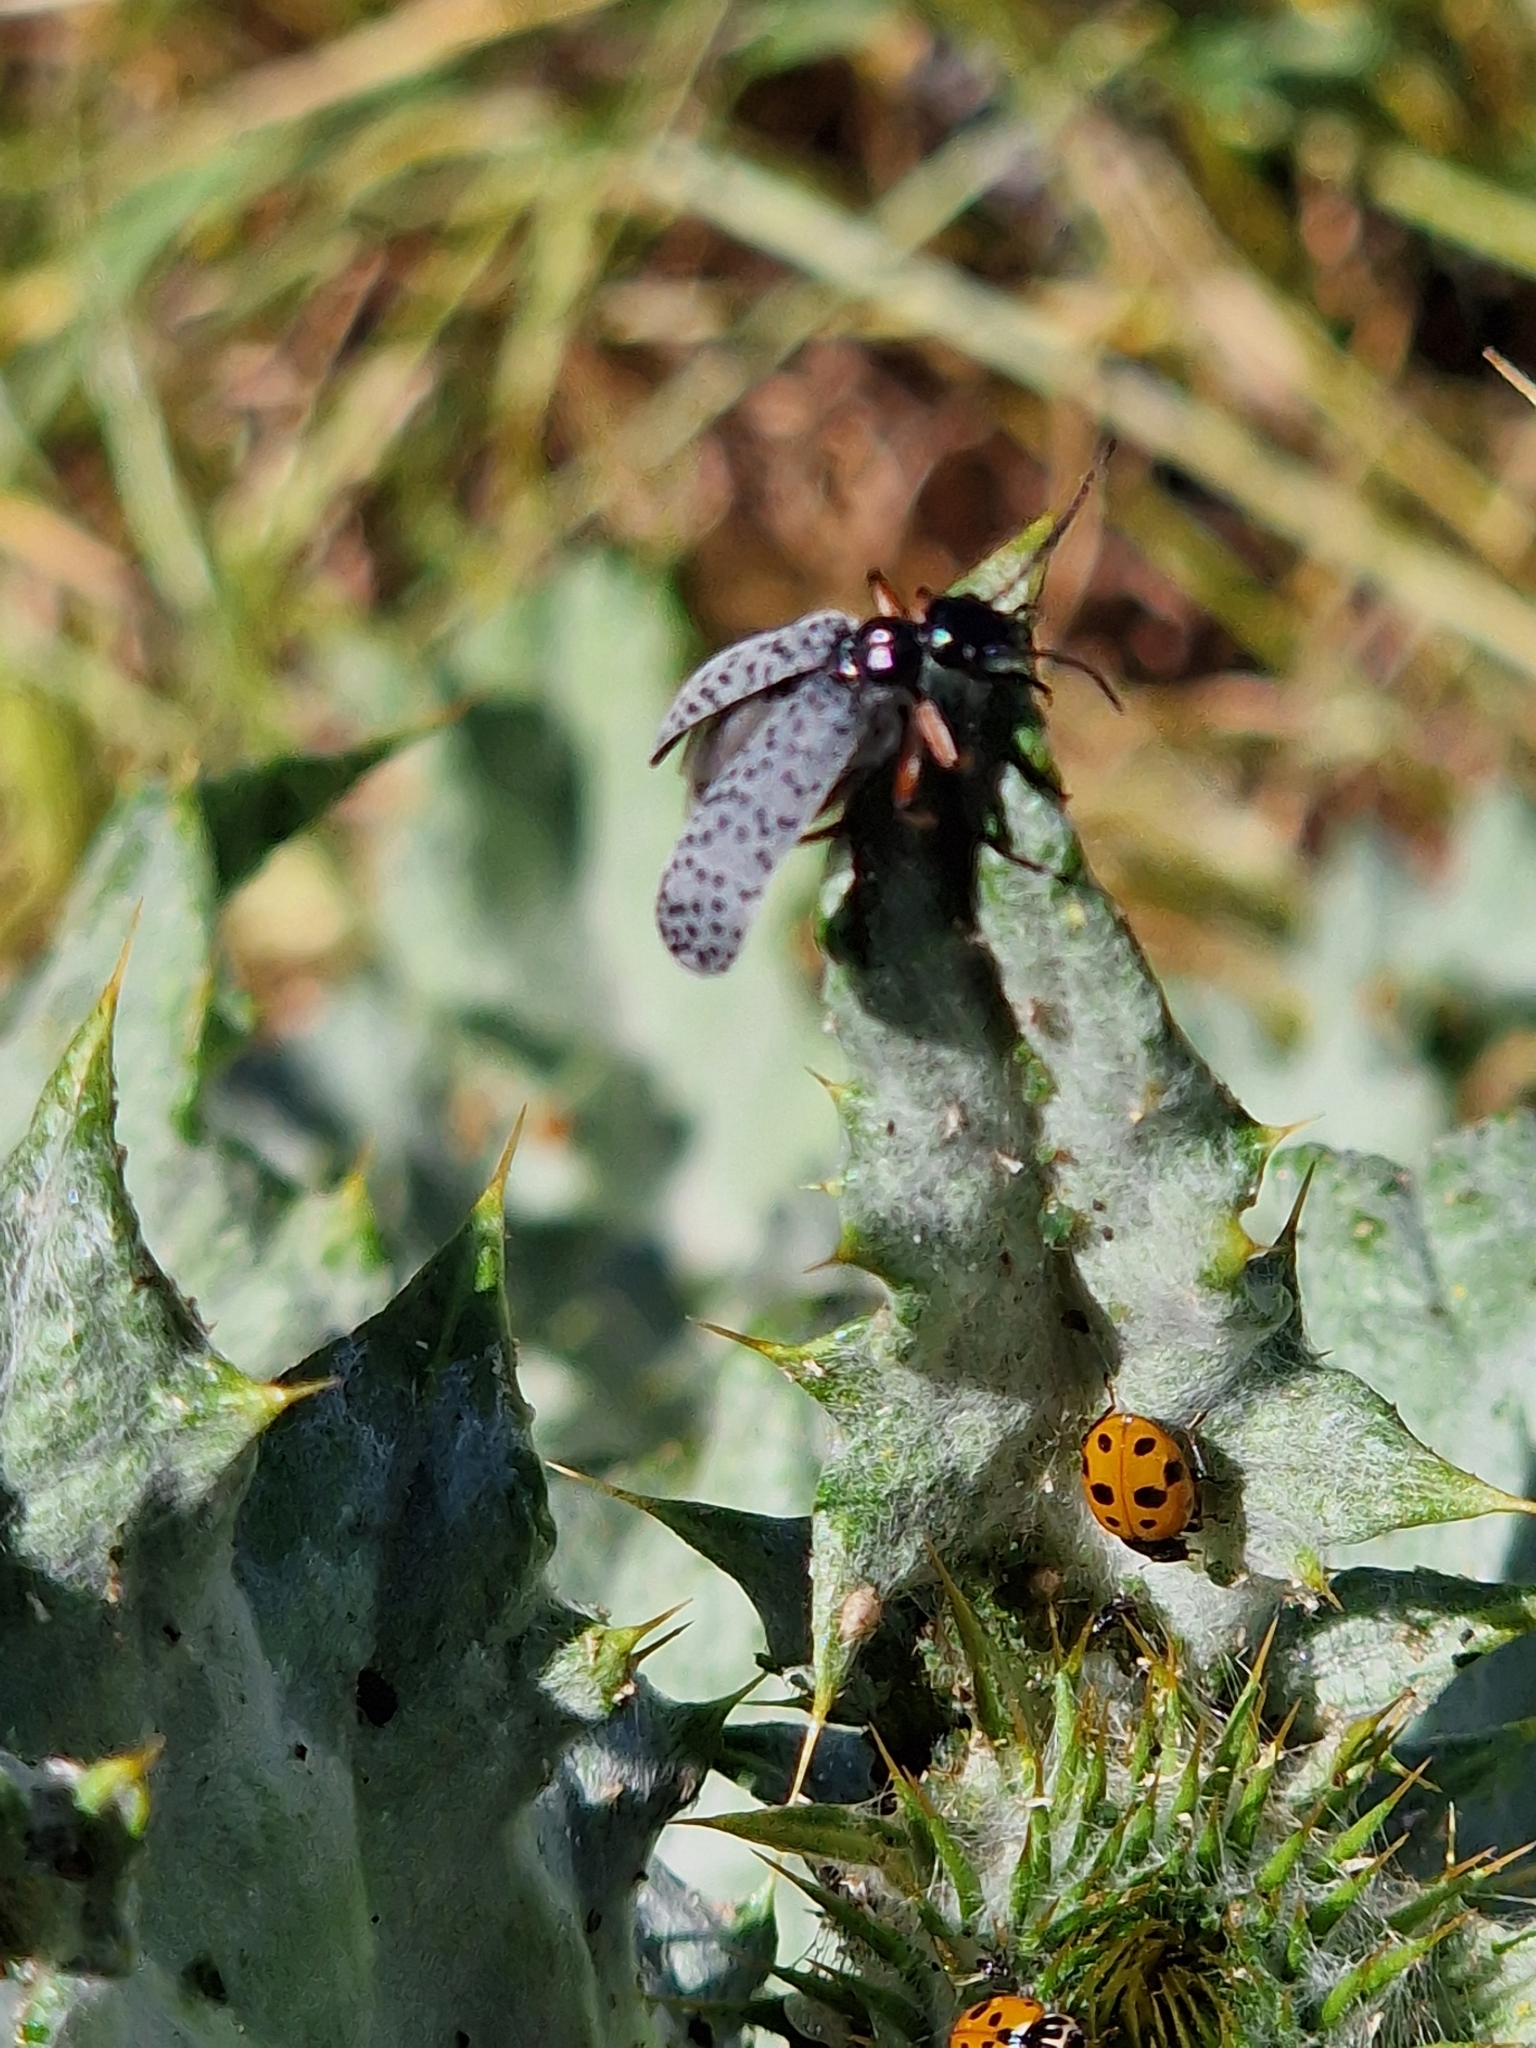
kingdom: Animalia
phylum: Arthropoda
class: Insecta
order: Coleoptera
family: Meloidae
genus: Epicauta
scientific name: Epicauta
